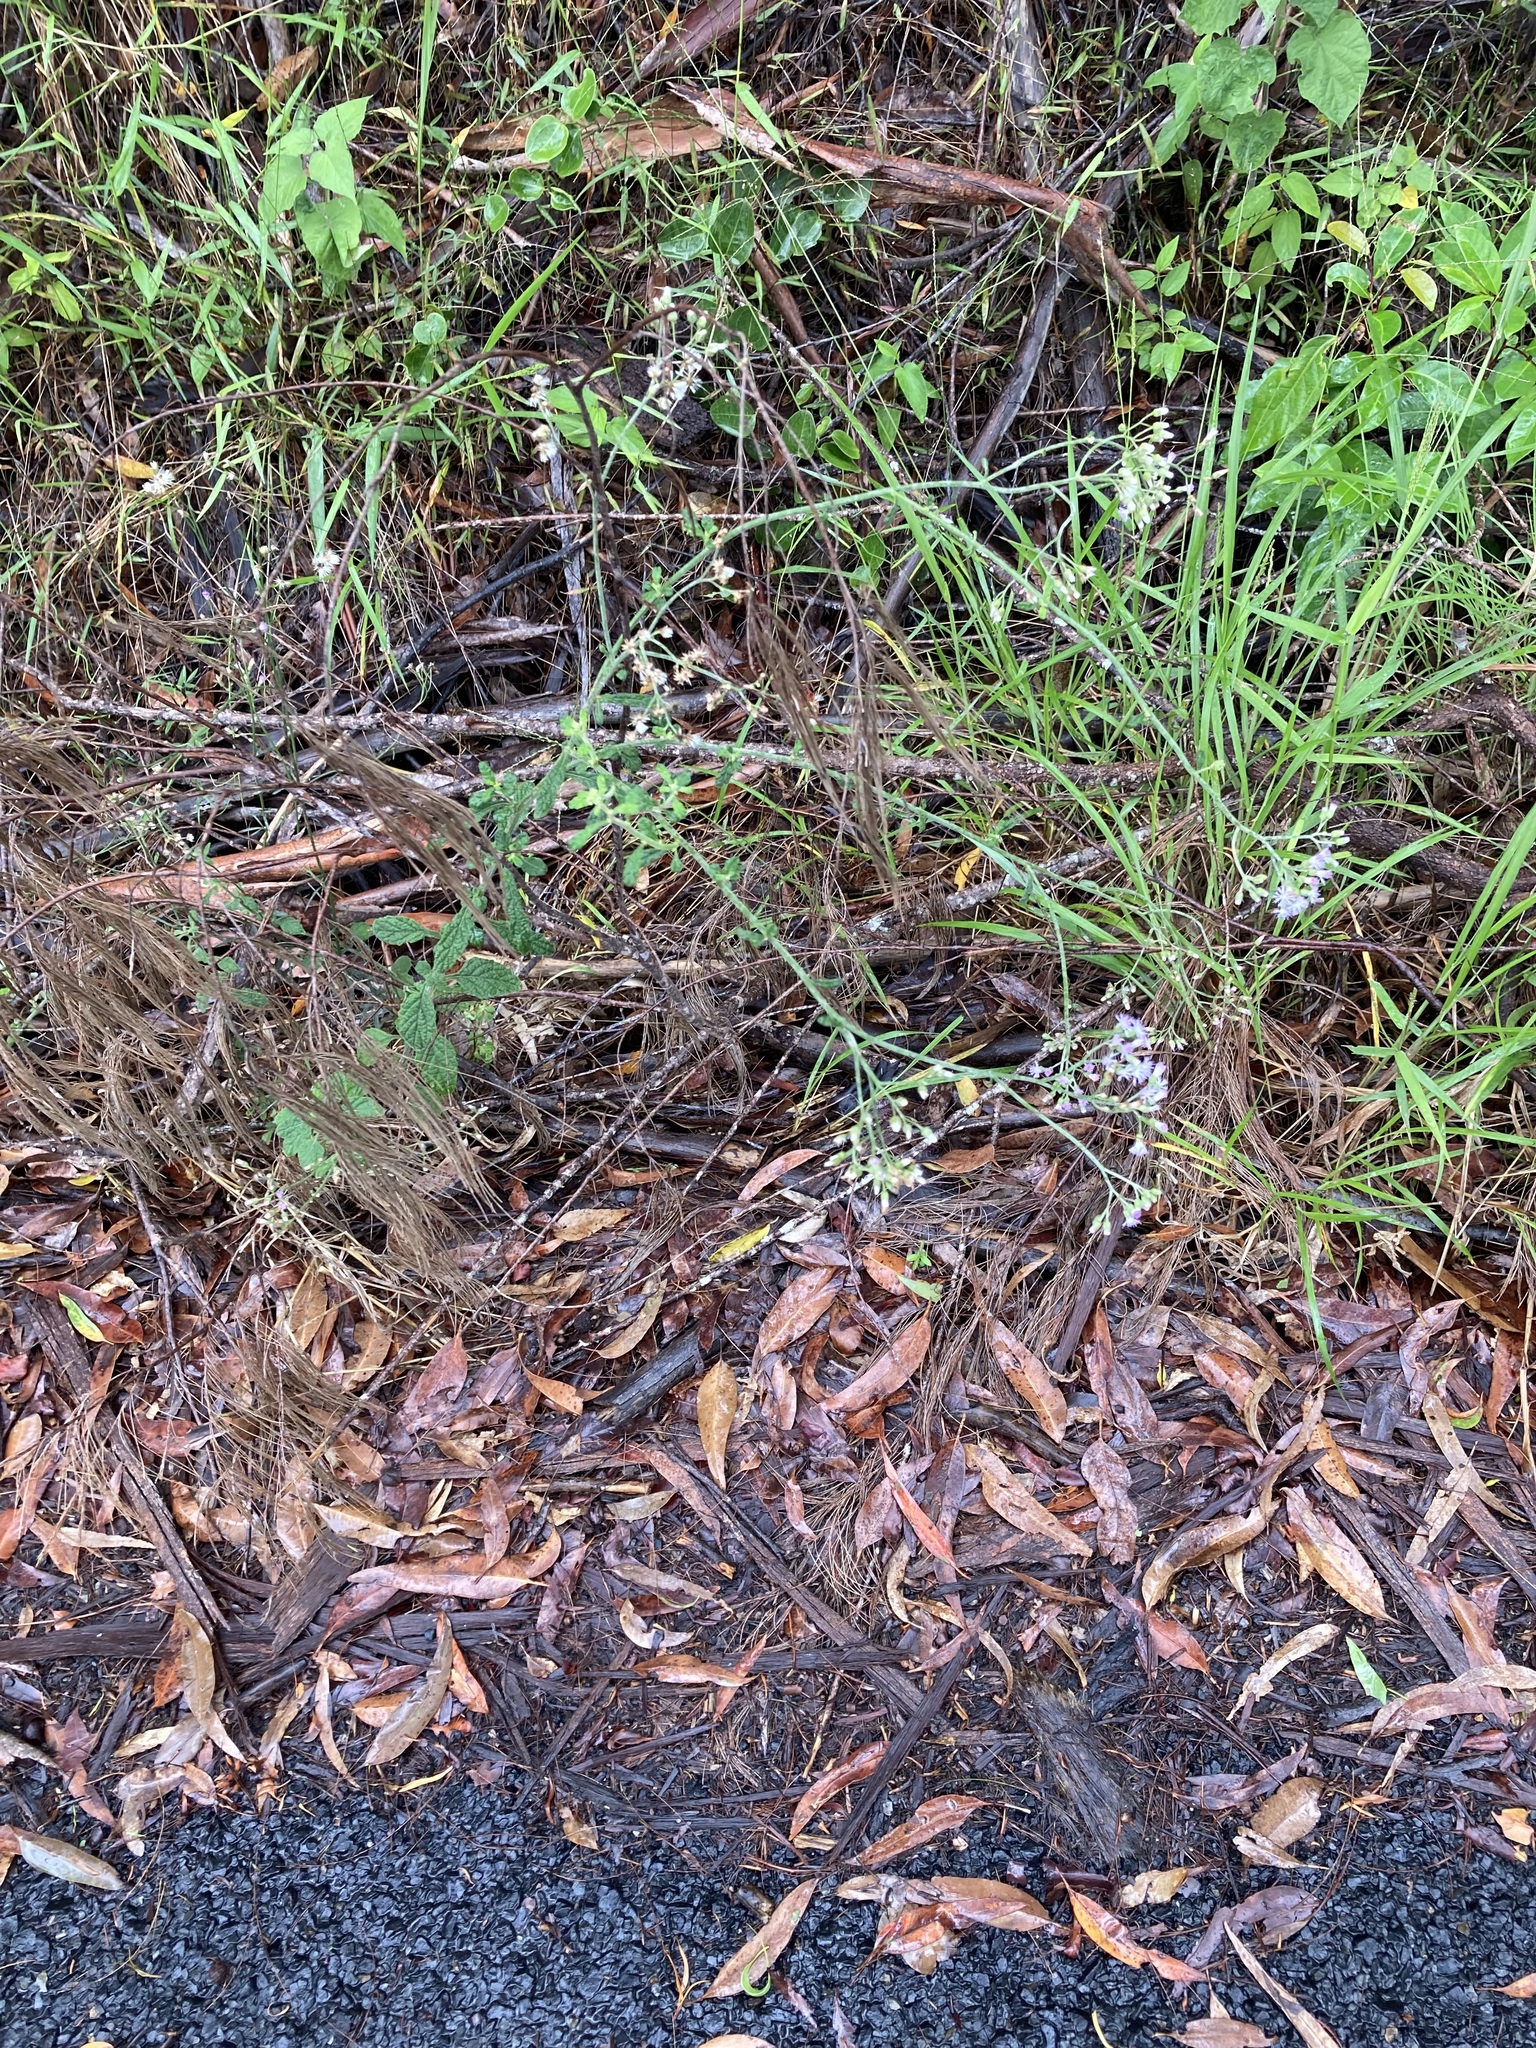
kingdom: Plantae
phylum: Tracheophyta
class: Magnoliopsida
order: Asterales
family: Asteraceae
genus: Cyanthillium
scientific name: Cyanthillium cinereum
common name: Little ironweed
